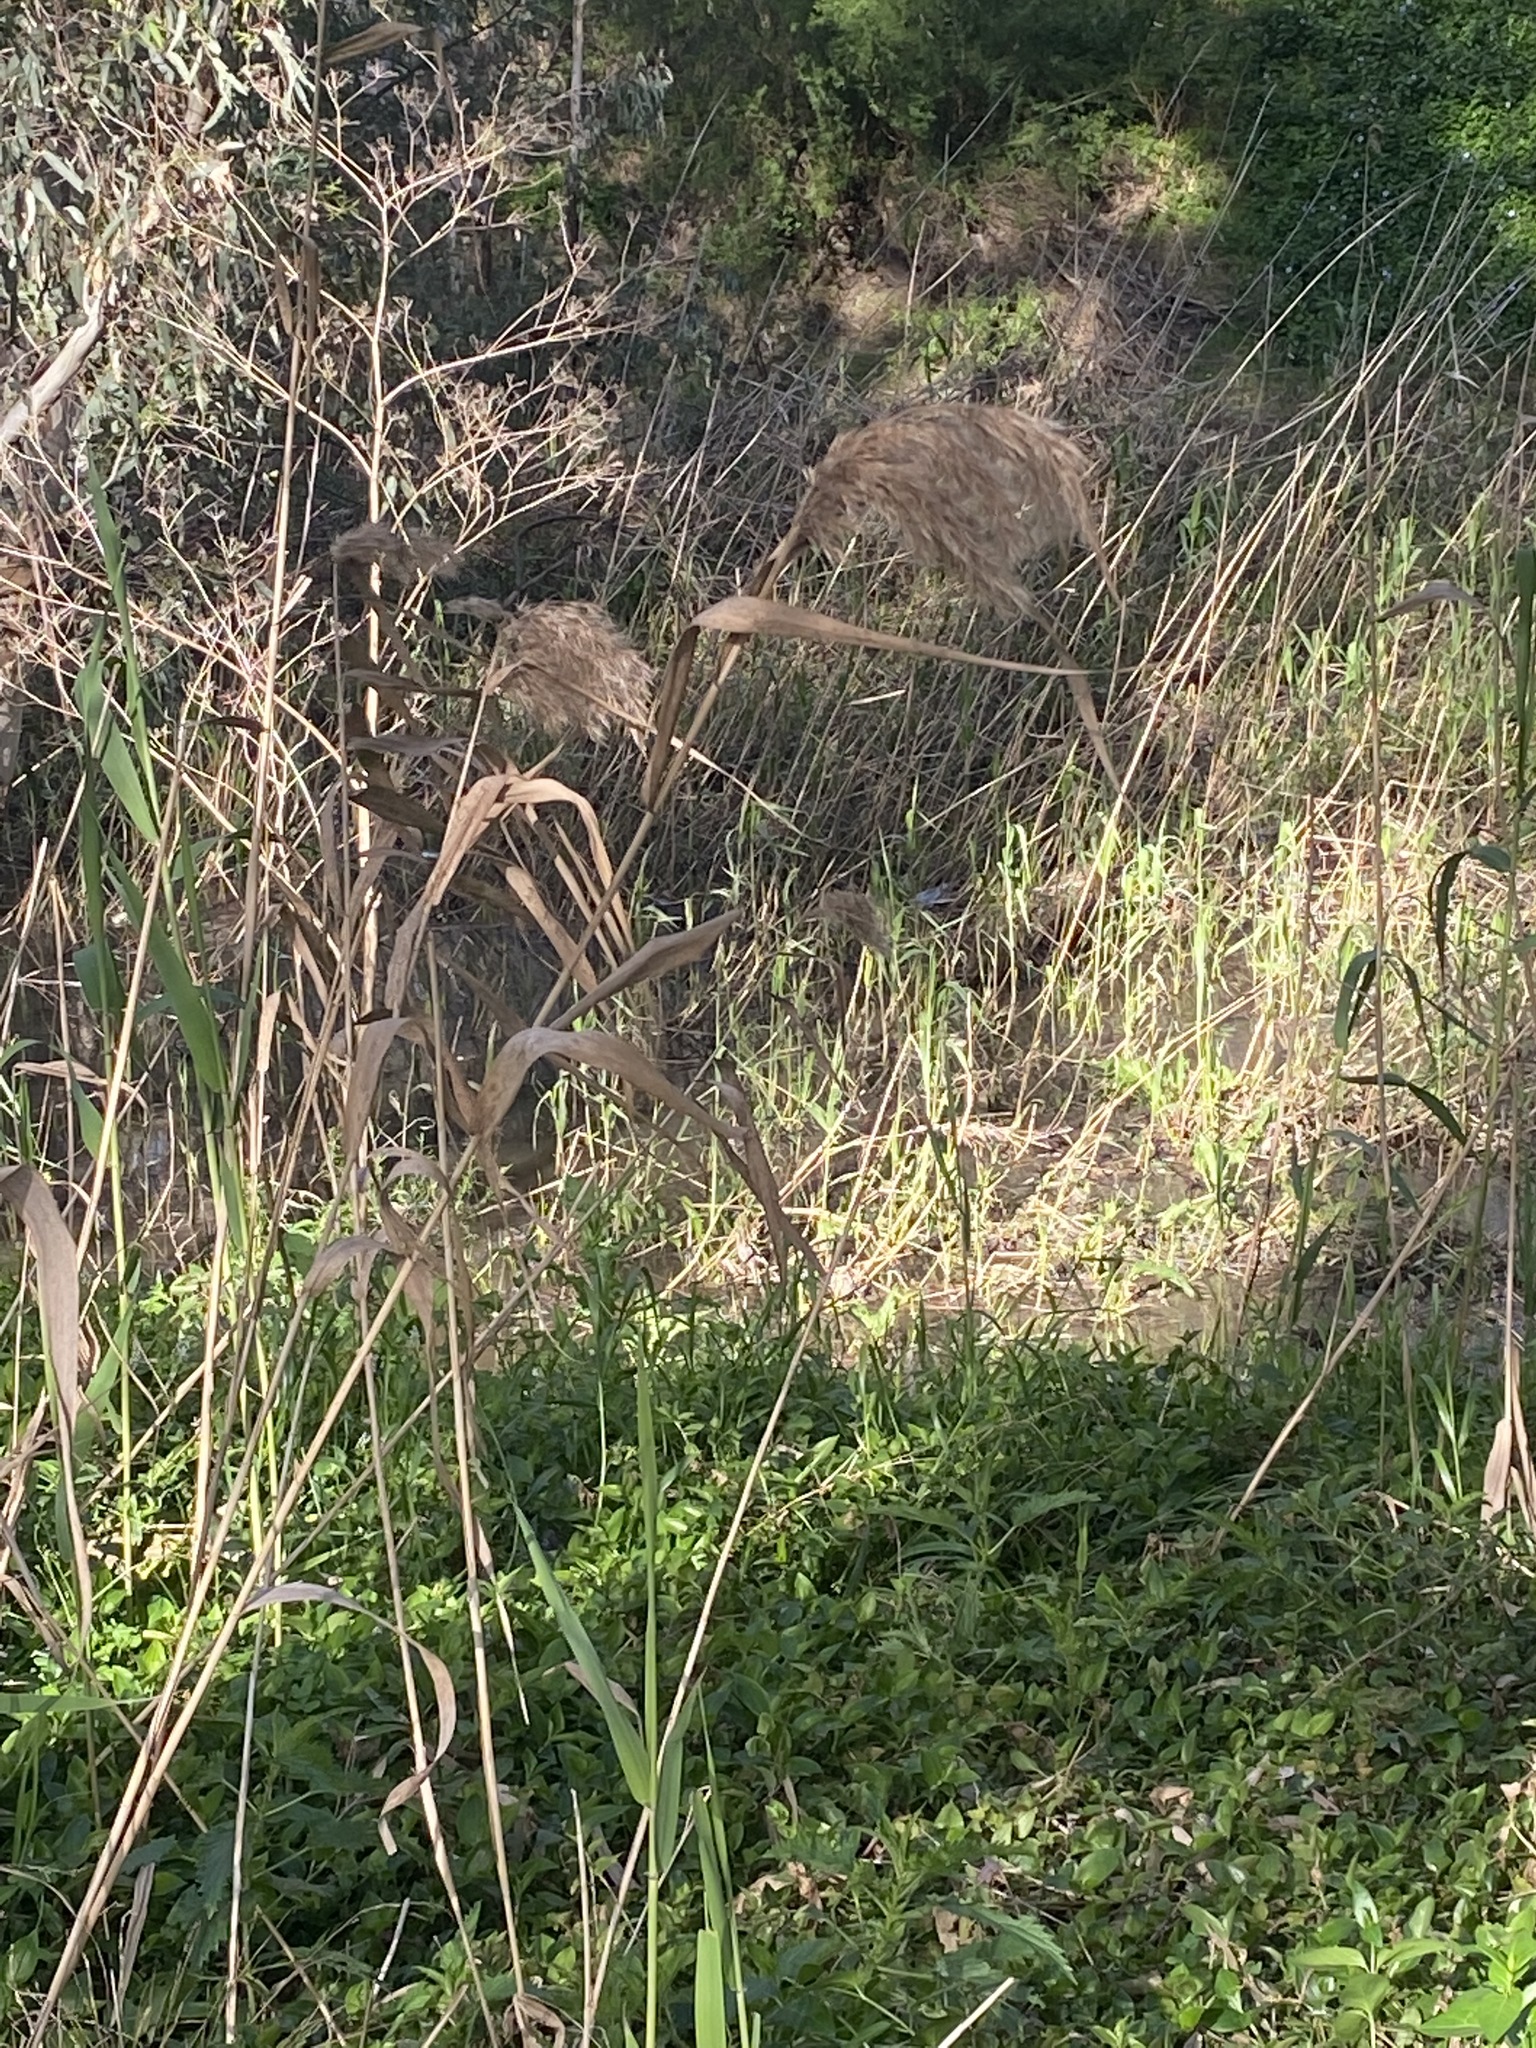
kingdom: Plantae
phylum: Tracheophyta
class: Liliopsida
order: Poales
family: Poaceae
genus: Phragmites
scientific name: Phragmites australis
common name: Common reed
